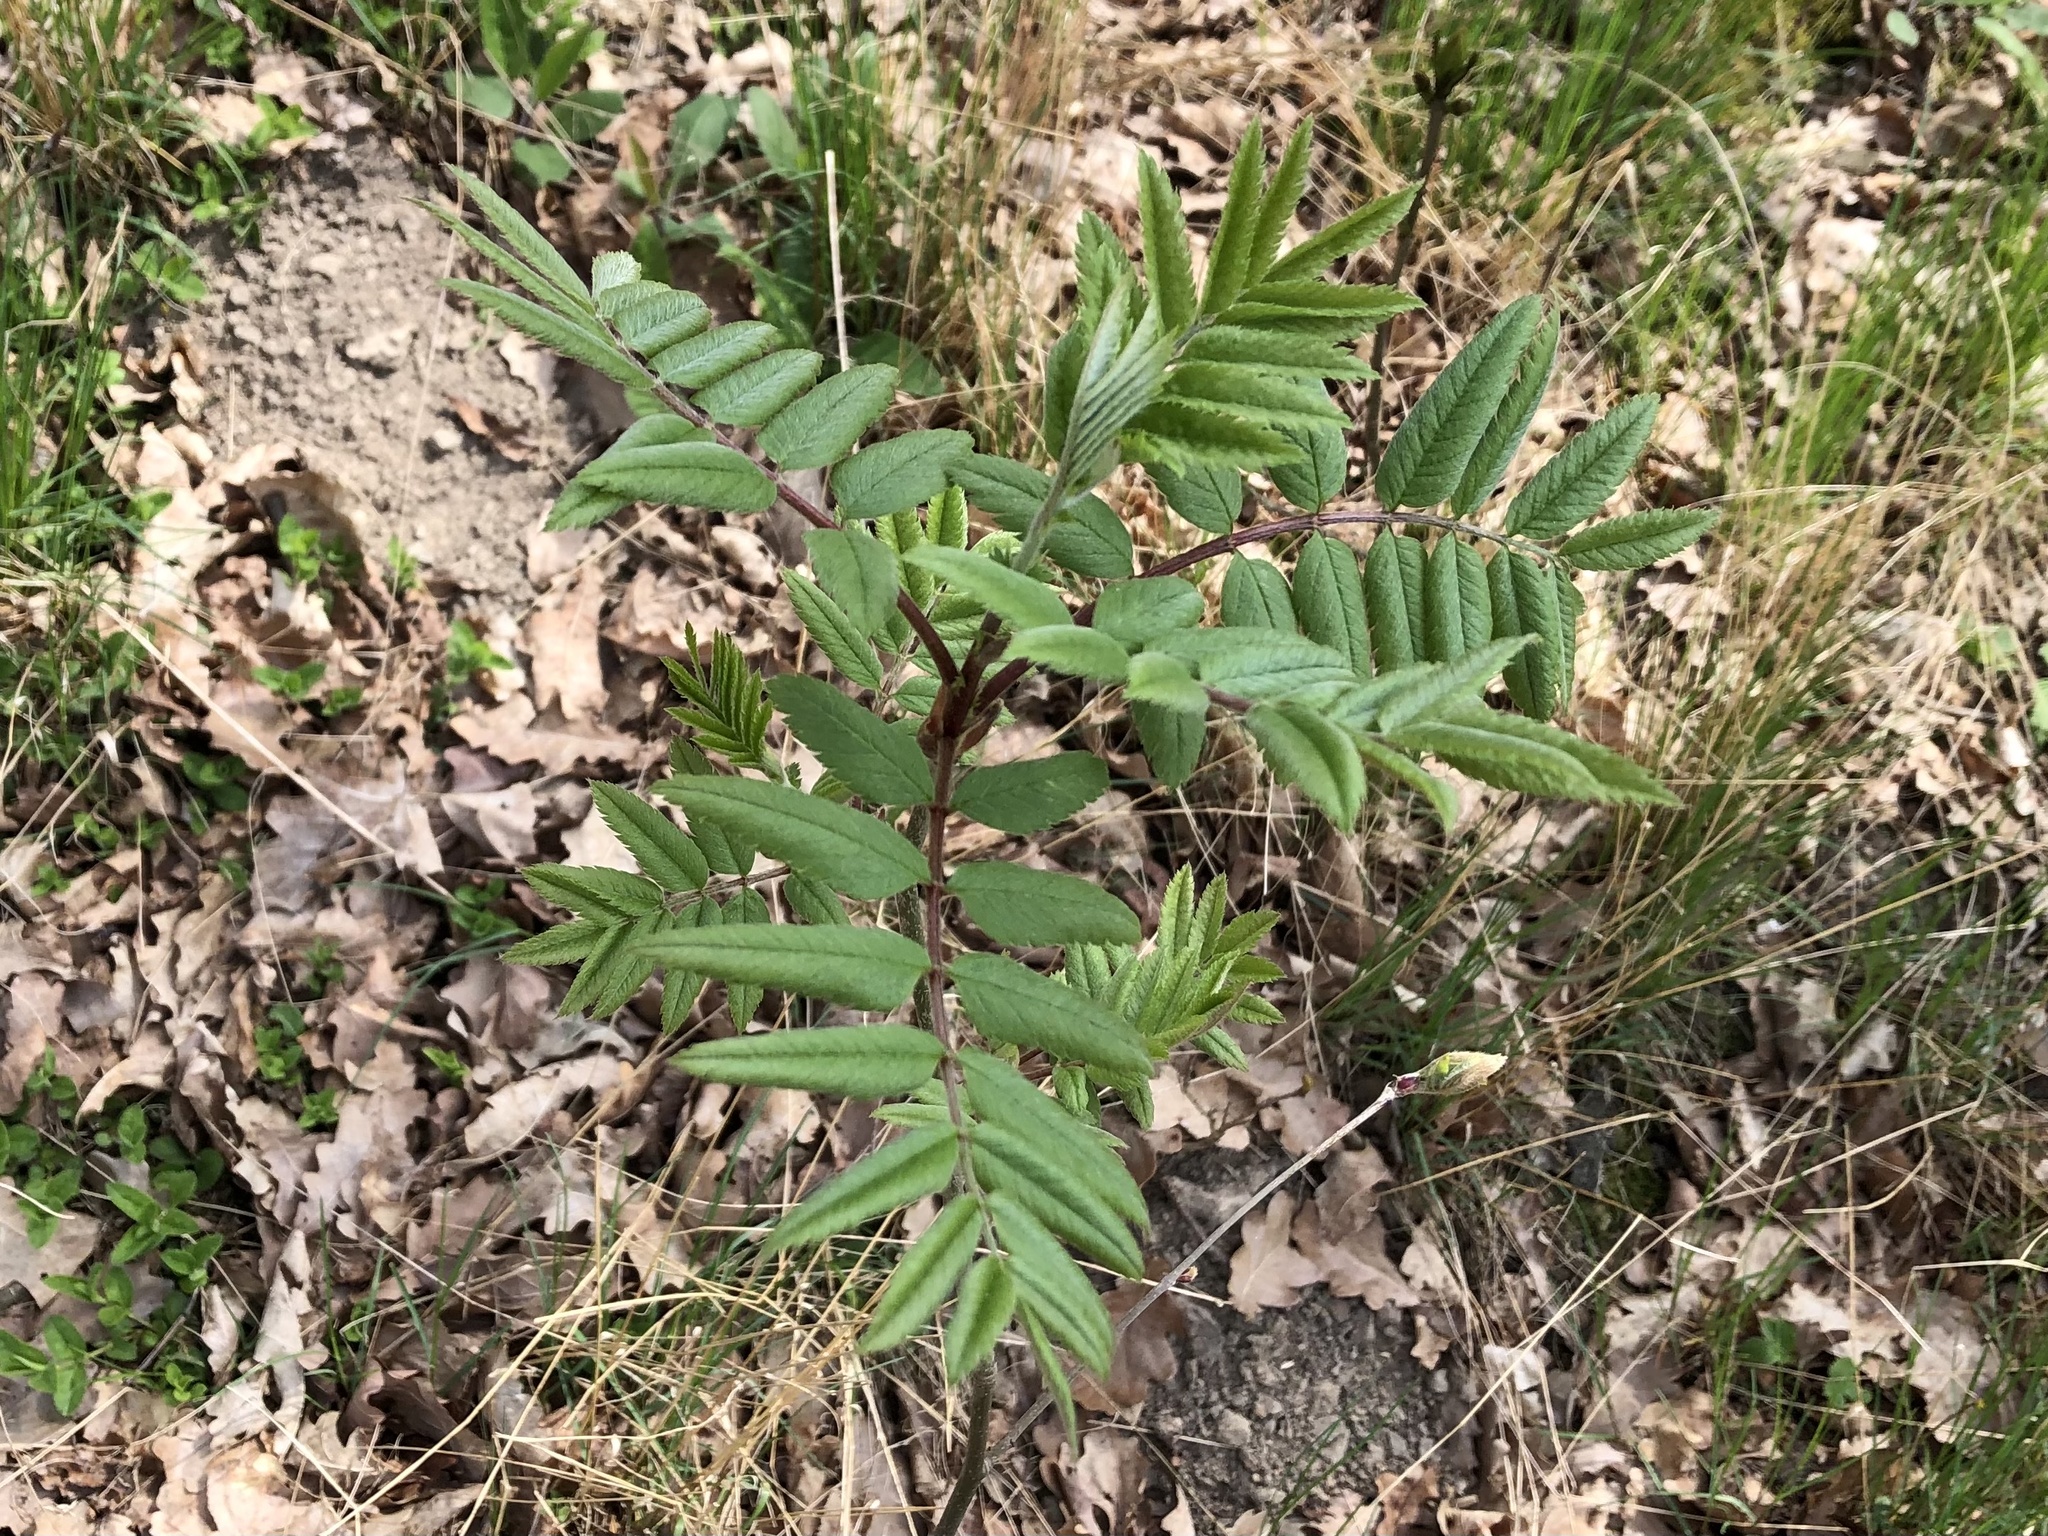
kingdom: Plantae
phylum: Tracheophyta
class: Magnoliopsida
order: Rosales
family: Rosaceae
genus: Sorbus
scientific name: Sorbus aucuparia
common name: Rowan
